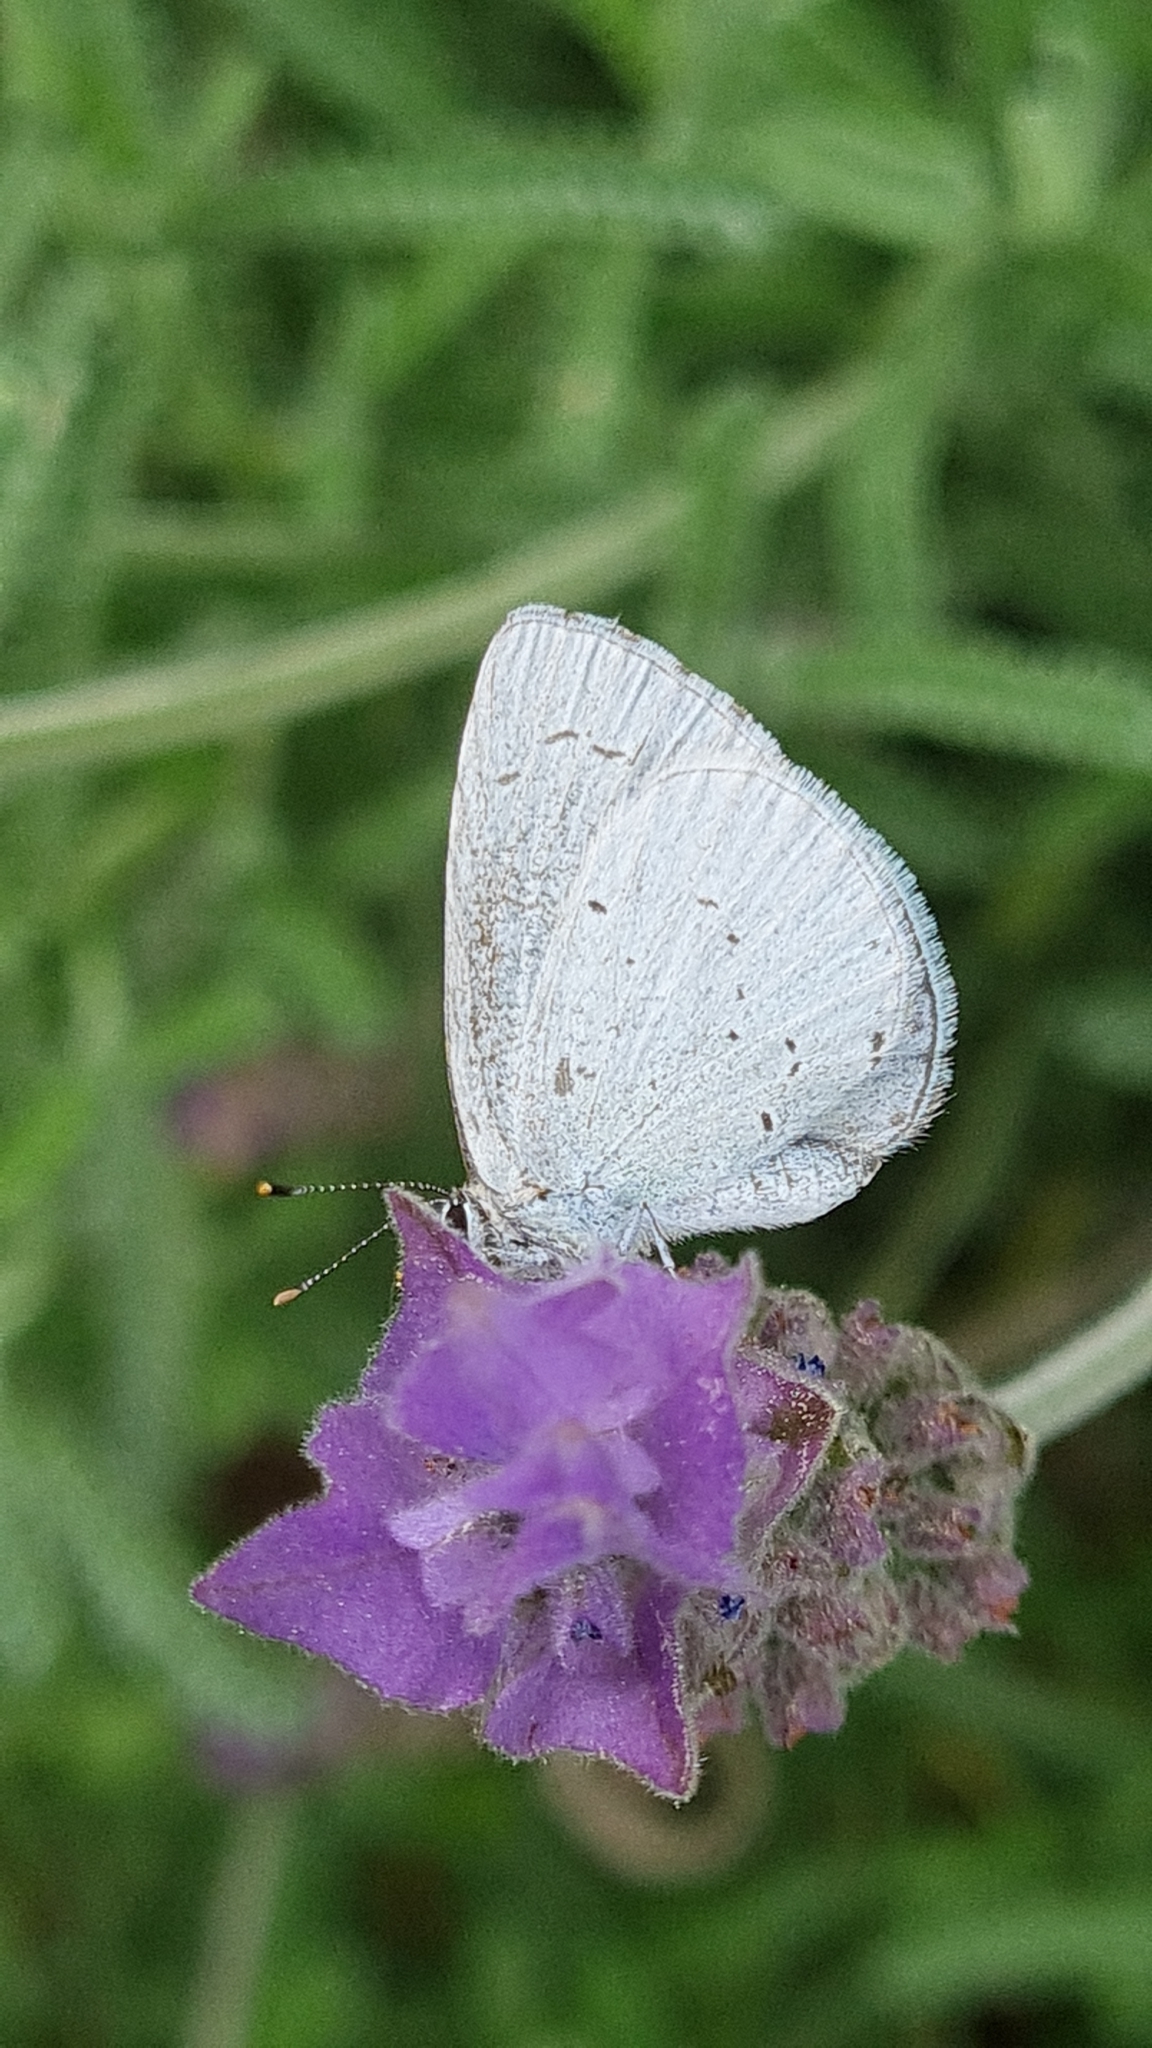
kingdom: Animalia
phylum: Arthropoda
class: Insecta
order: Lepidoptera
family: Lycaenidae
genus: Celastrina
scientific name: Celastrina argiolus
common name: Holly blue
